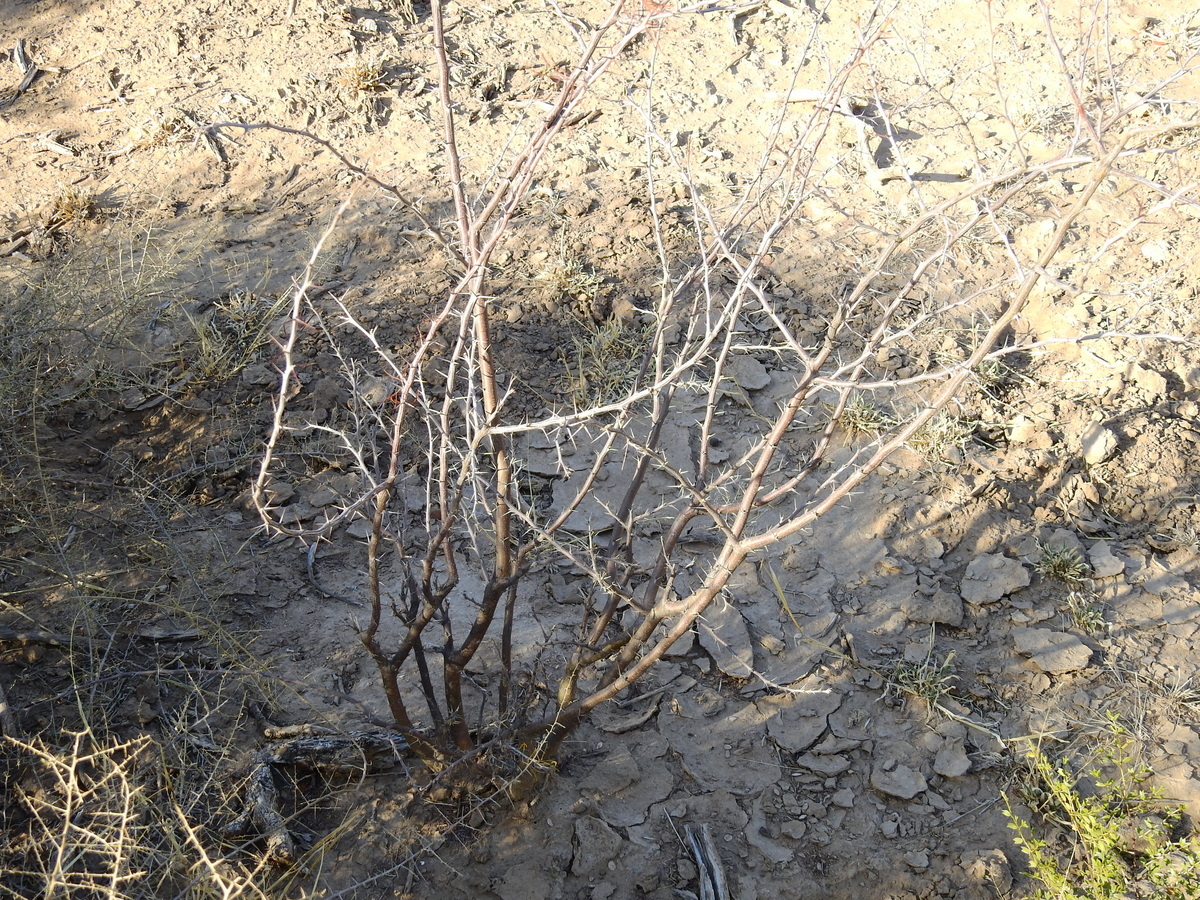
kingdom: Plantae
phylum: Tracheophyta
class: Magnoliopsida
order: Fabales
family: Fabaceae
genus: Mimozyganthus
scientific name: Mimozyganthus carinatus
